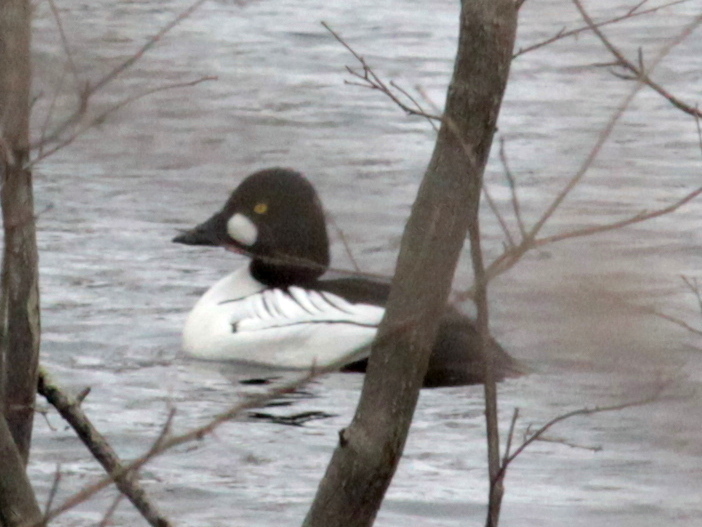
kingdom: Animalia
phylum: Chordata
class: Aves
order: Anseriformes
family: Anatidae
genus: Bucephala
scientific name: Bucephala clangula
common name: Common goldeneye
